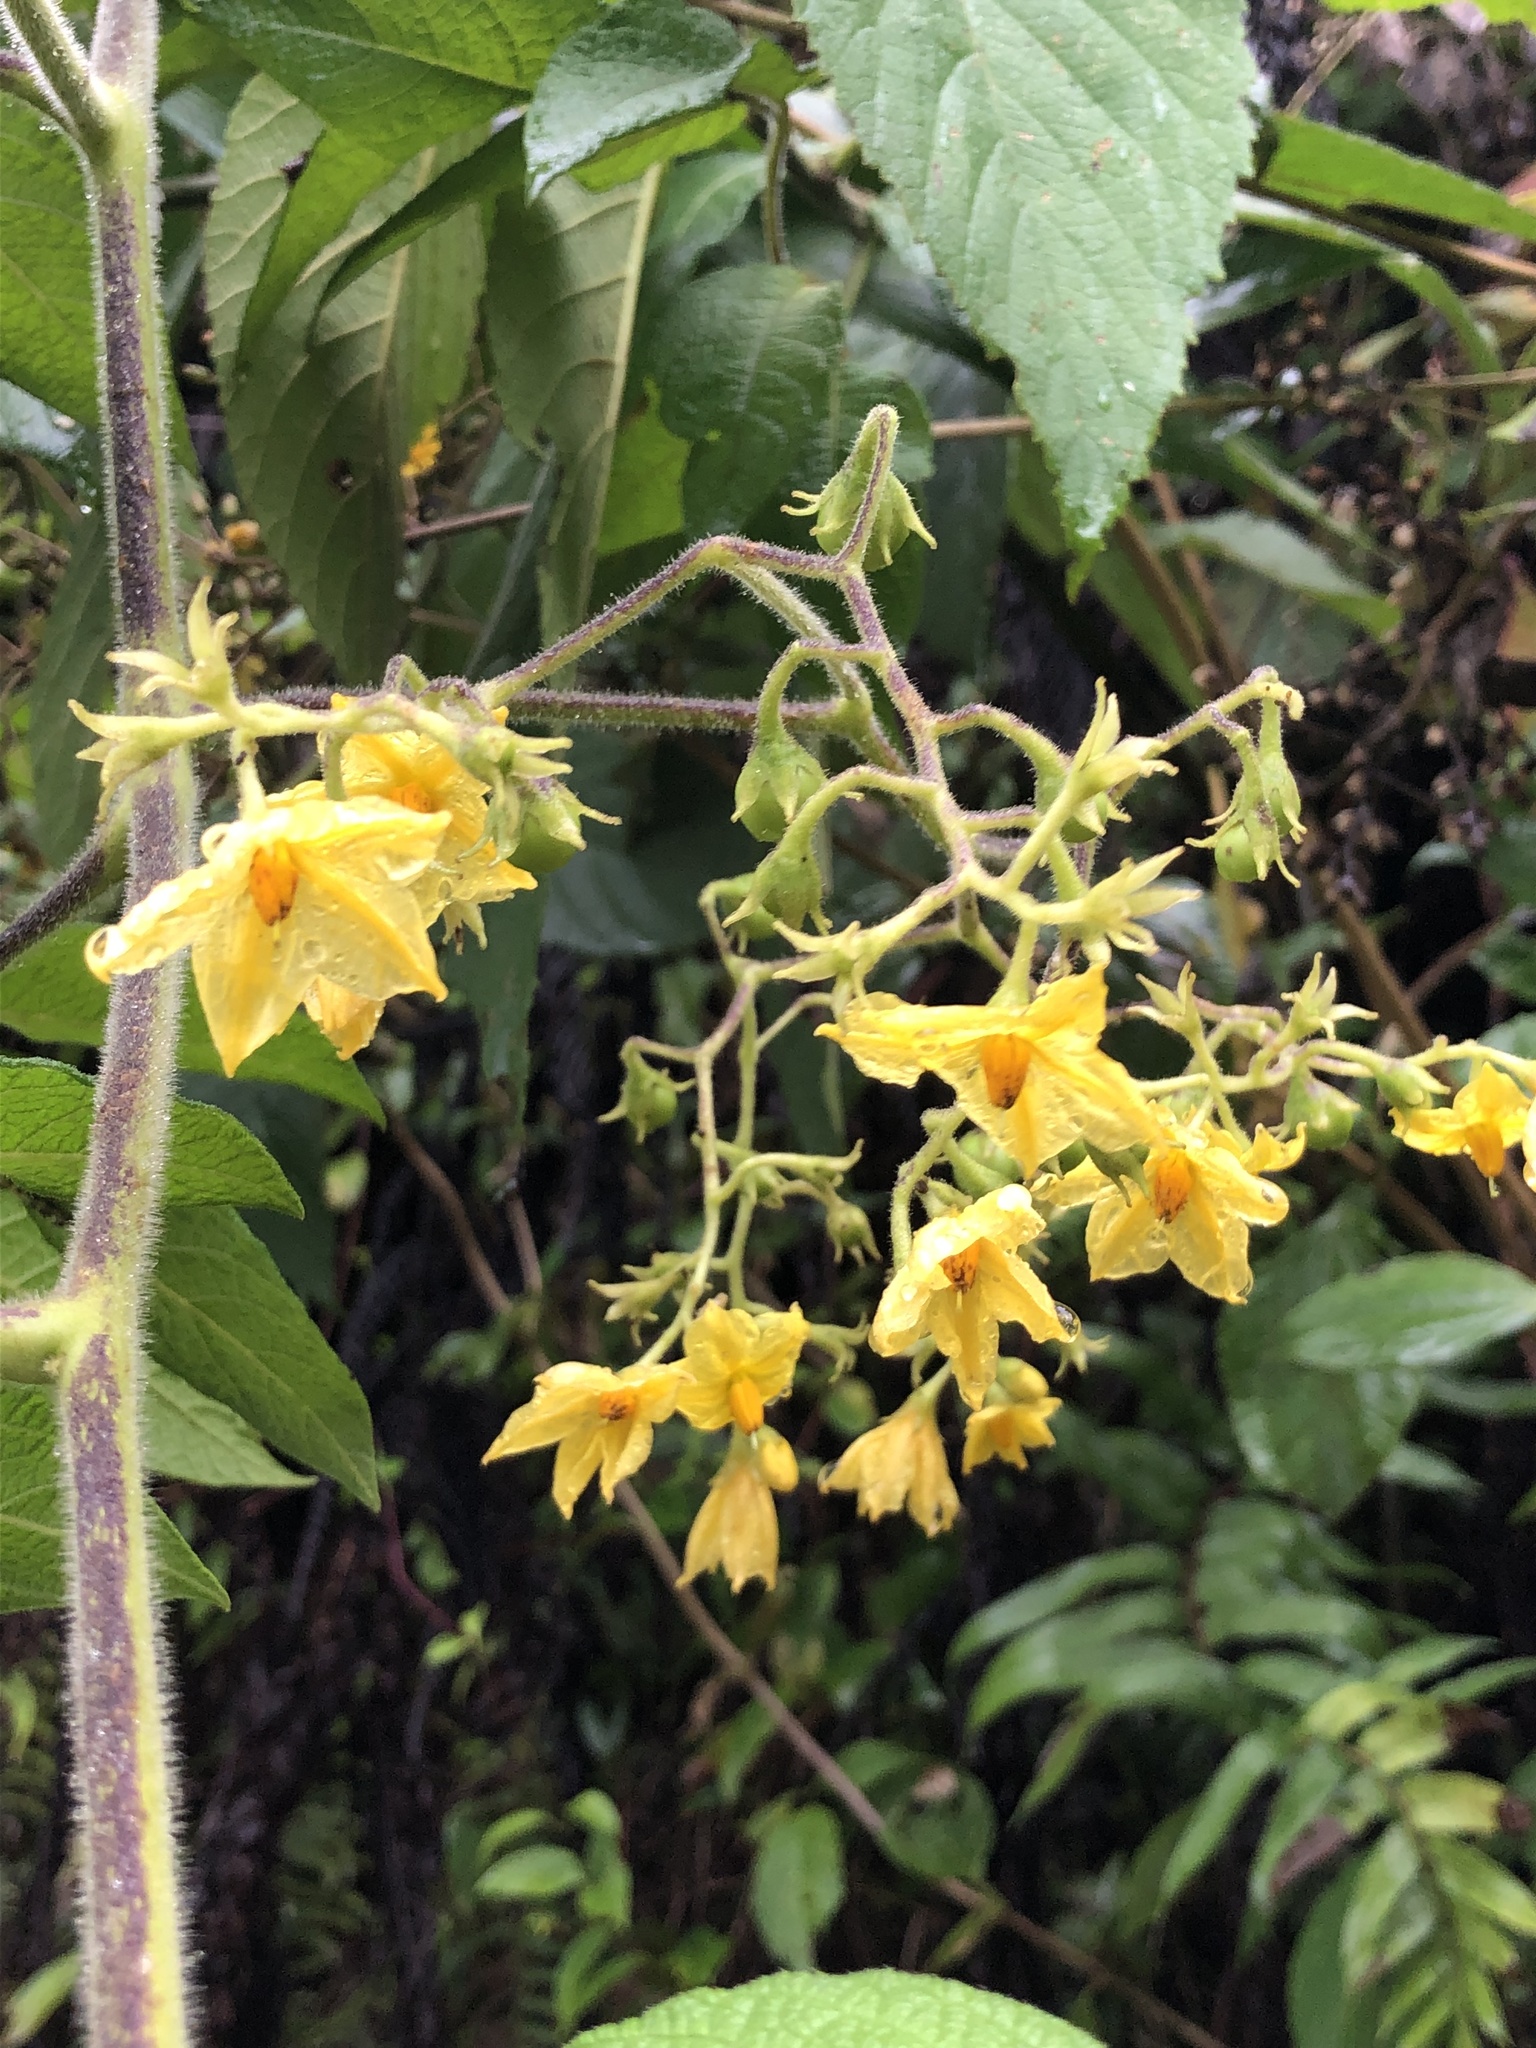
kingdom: Plantae
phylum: Tracheophyta
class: Magnoliopsida
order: Solanales
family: Solanaceae
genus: Solanum
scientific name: Solanum juglandifolium
